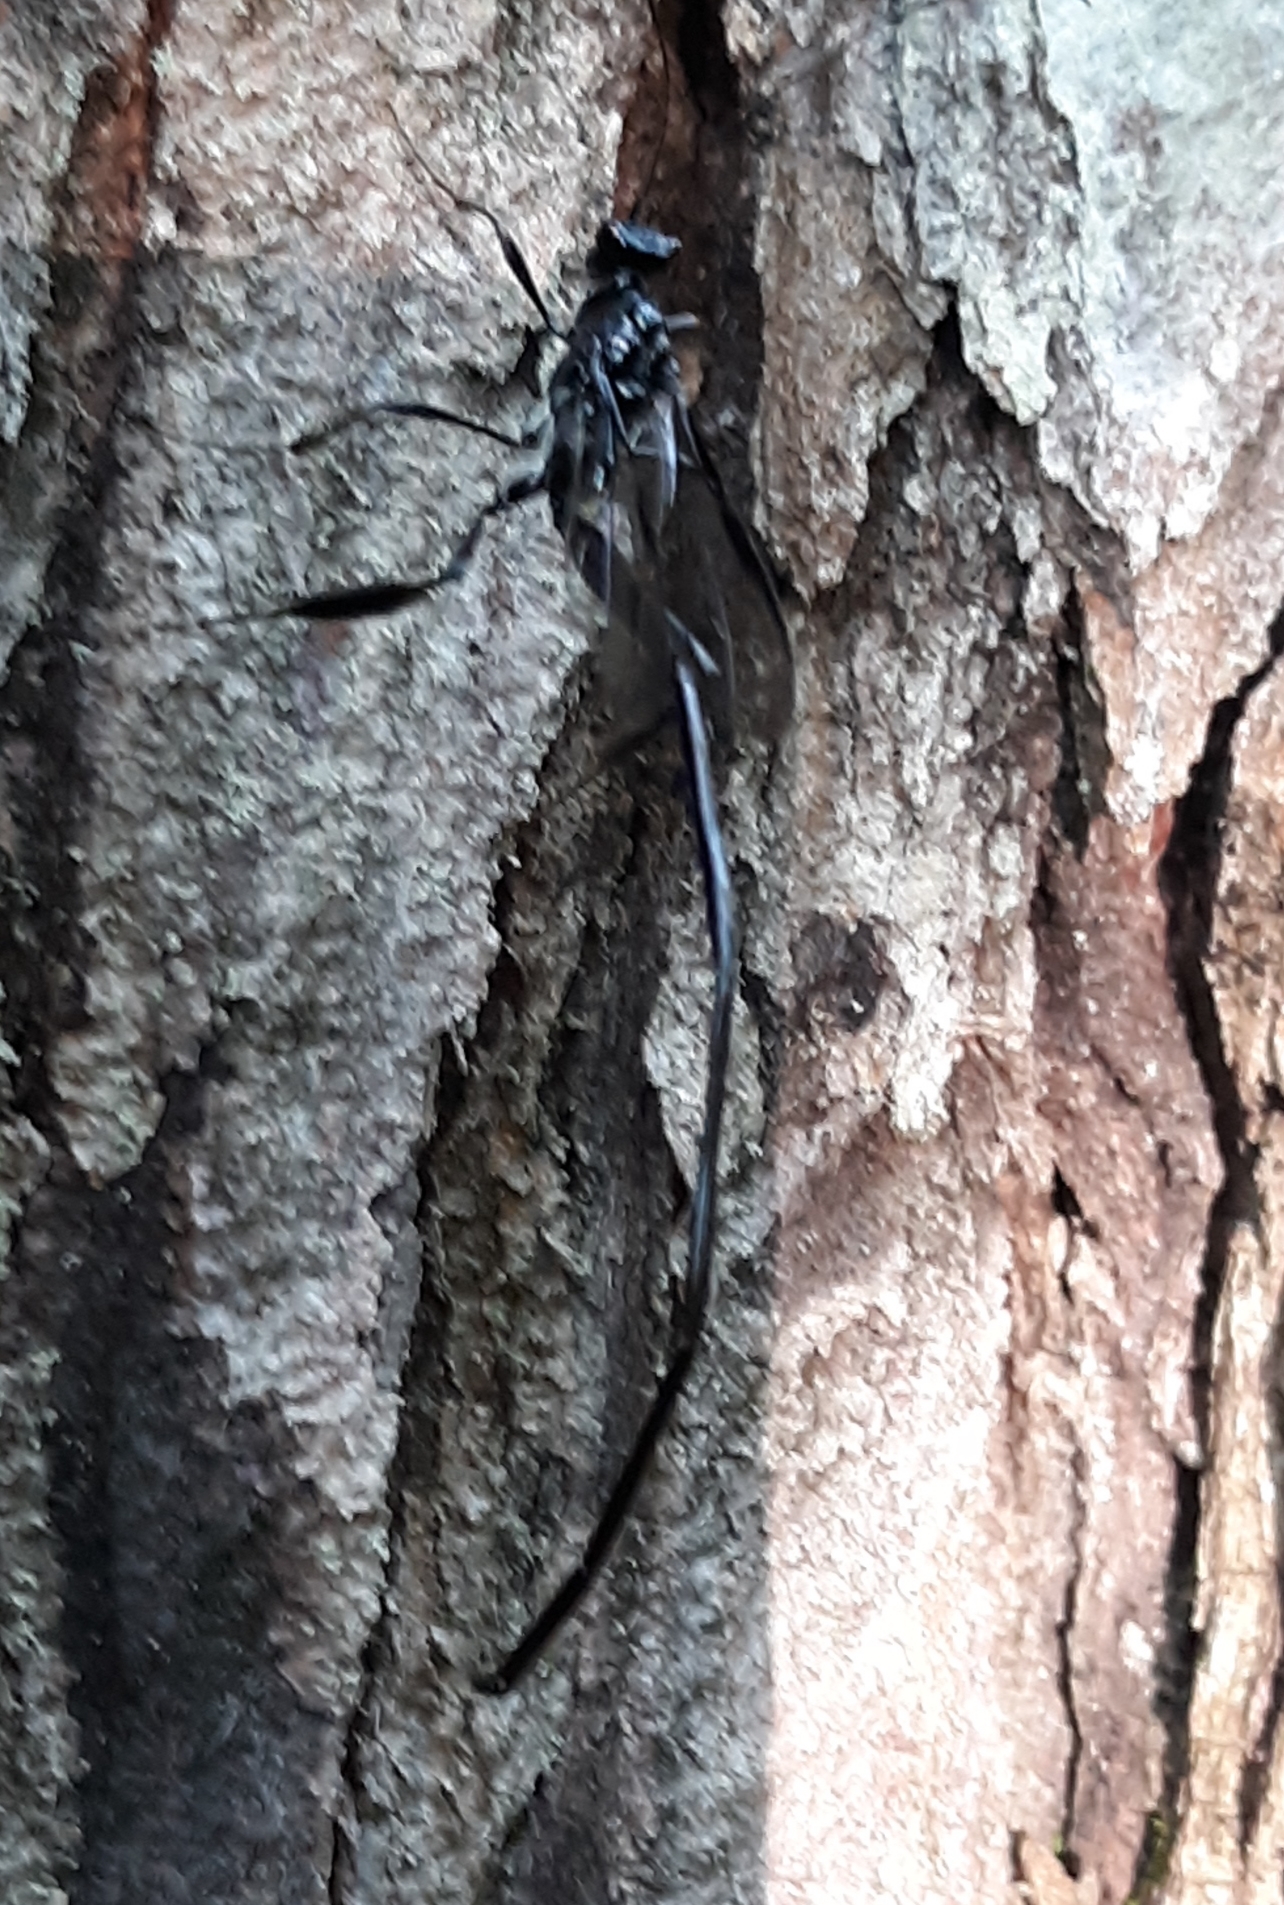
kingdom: Animalia
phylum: Arthropoda
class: Insecta
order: Hymenoptera
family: Pelecinidae
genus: Pelecinus
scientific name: Pelecinus polyturator
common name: American pelecinid wasp
